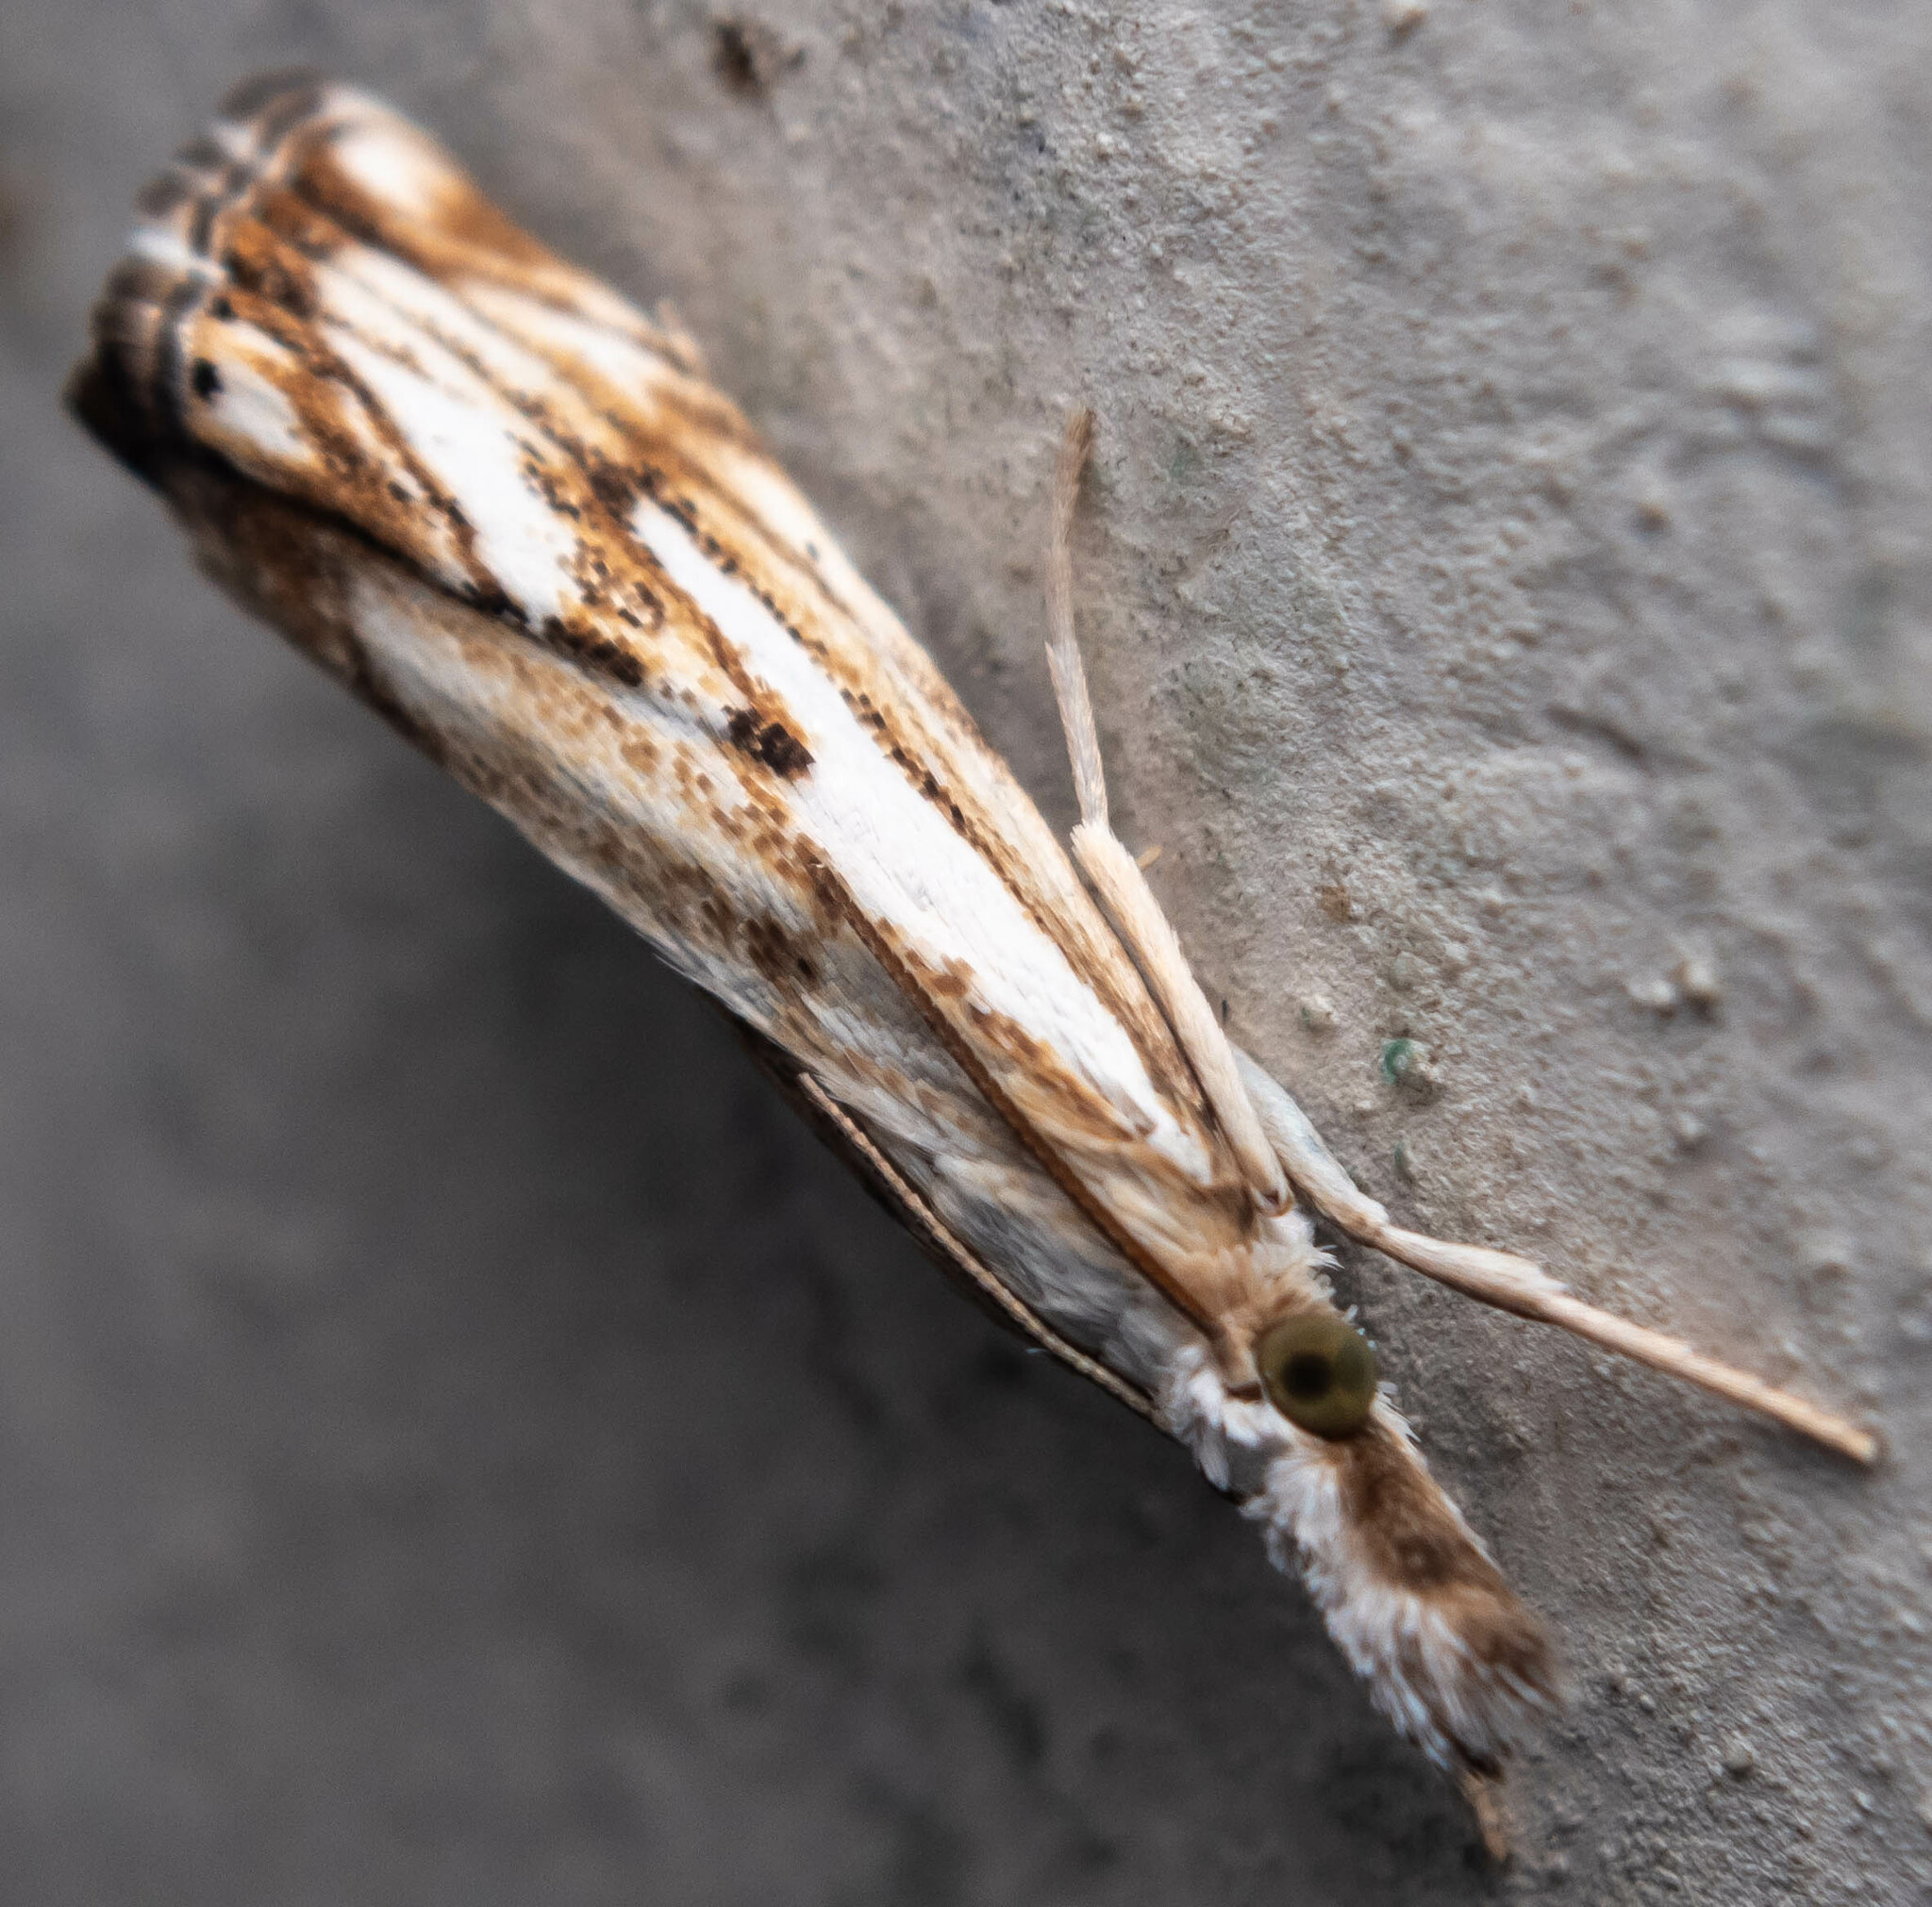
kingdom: Animalia
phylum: Arthropoda
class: Insecta
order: Lepidoptera
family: Crambidae
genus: Catoptria
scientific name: Catoptria falsella
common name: Chequered grass-veneer
